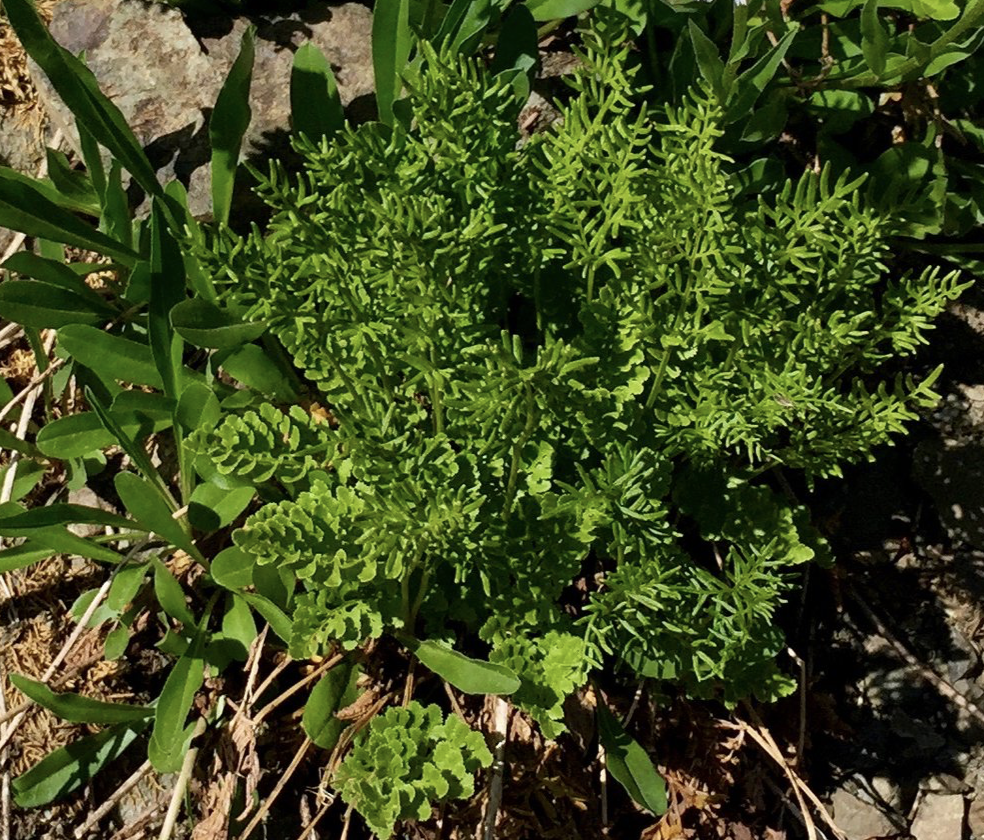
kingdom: Plantae
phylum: Tracheophyta
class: Polypodiopsida
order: Polypodiales
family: Pteridaceae
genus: Cryptogramma
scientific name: Cryptogramma acrostichoides
